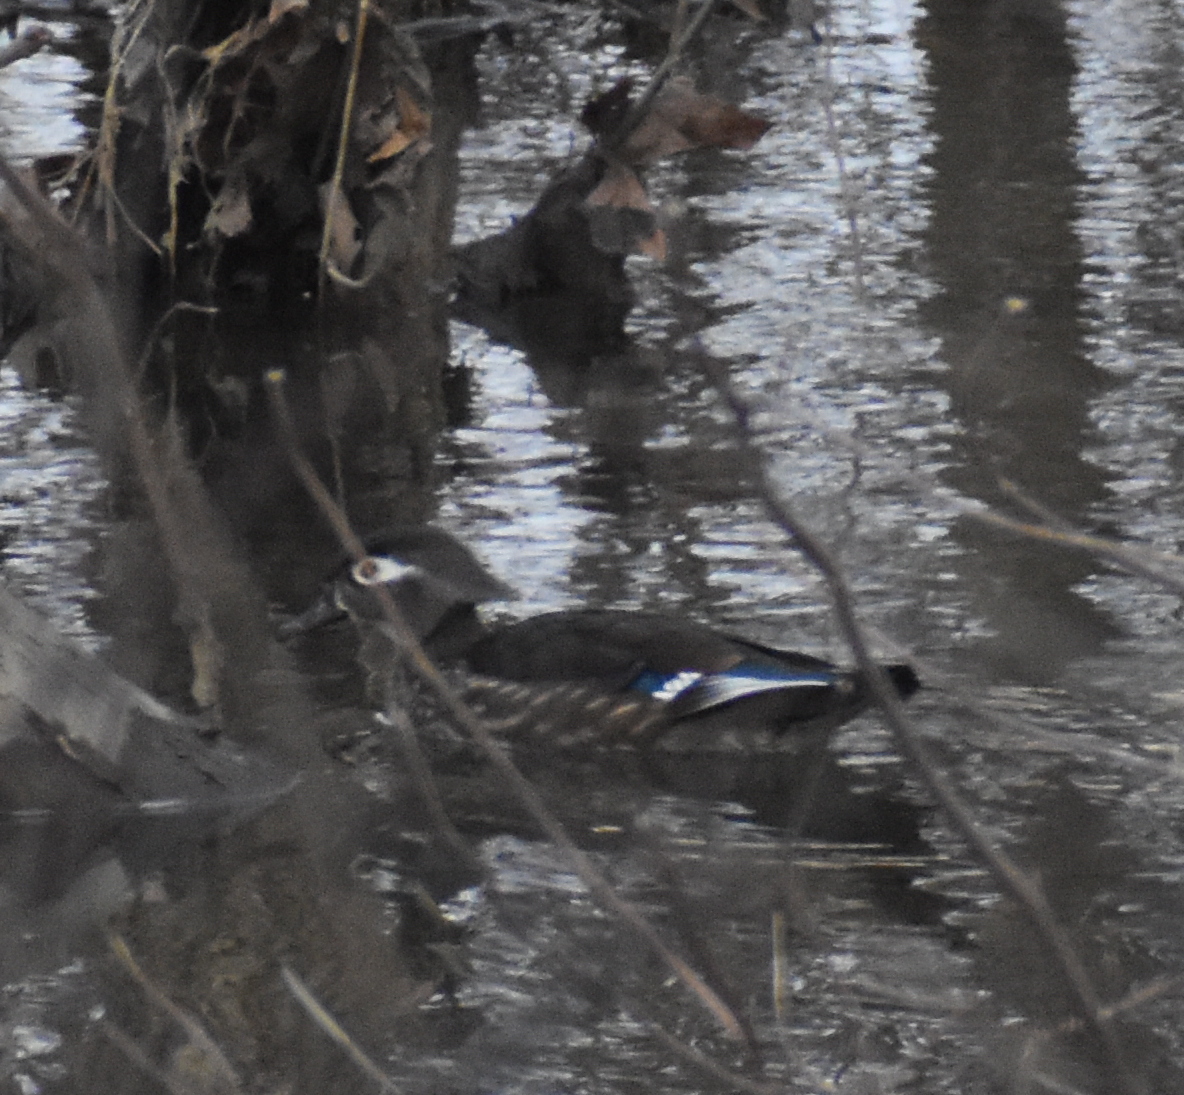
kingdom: Animalia
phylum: Chordata
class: Aves
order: Anseriformes
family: Anatidae
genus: Aix
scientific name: Aix sponsa
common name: Wood duck
